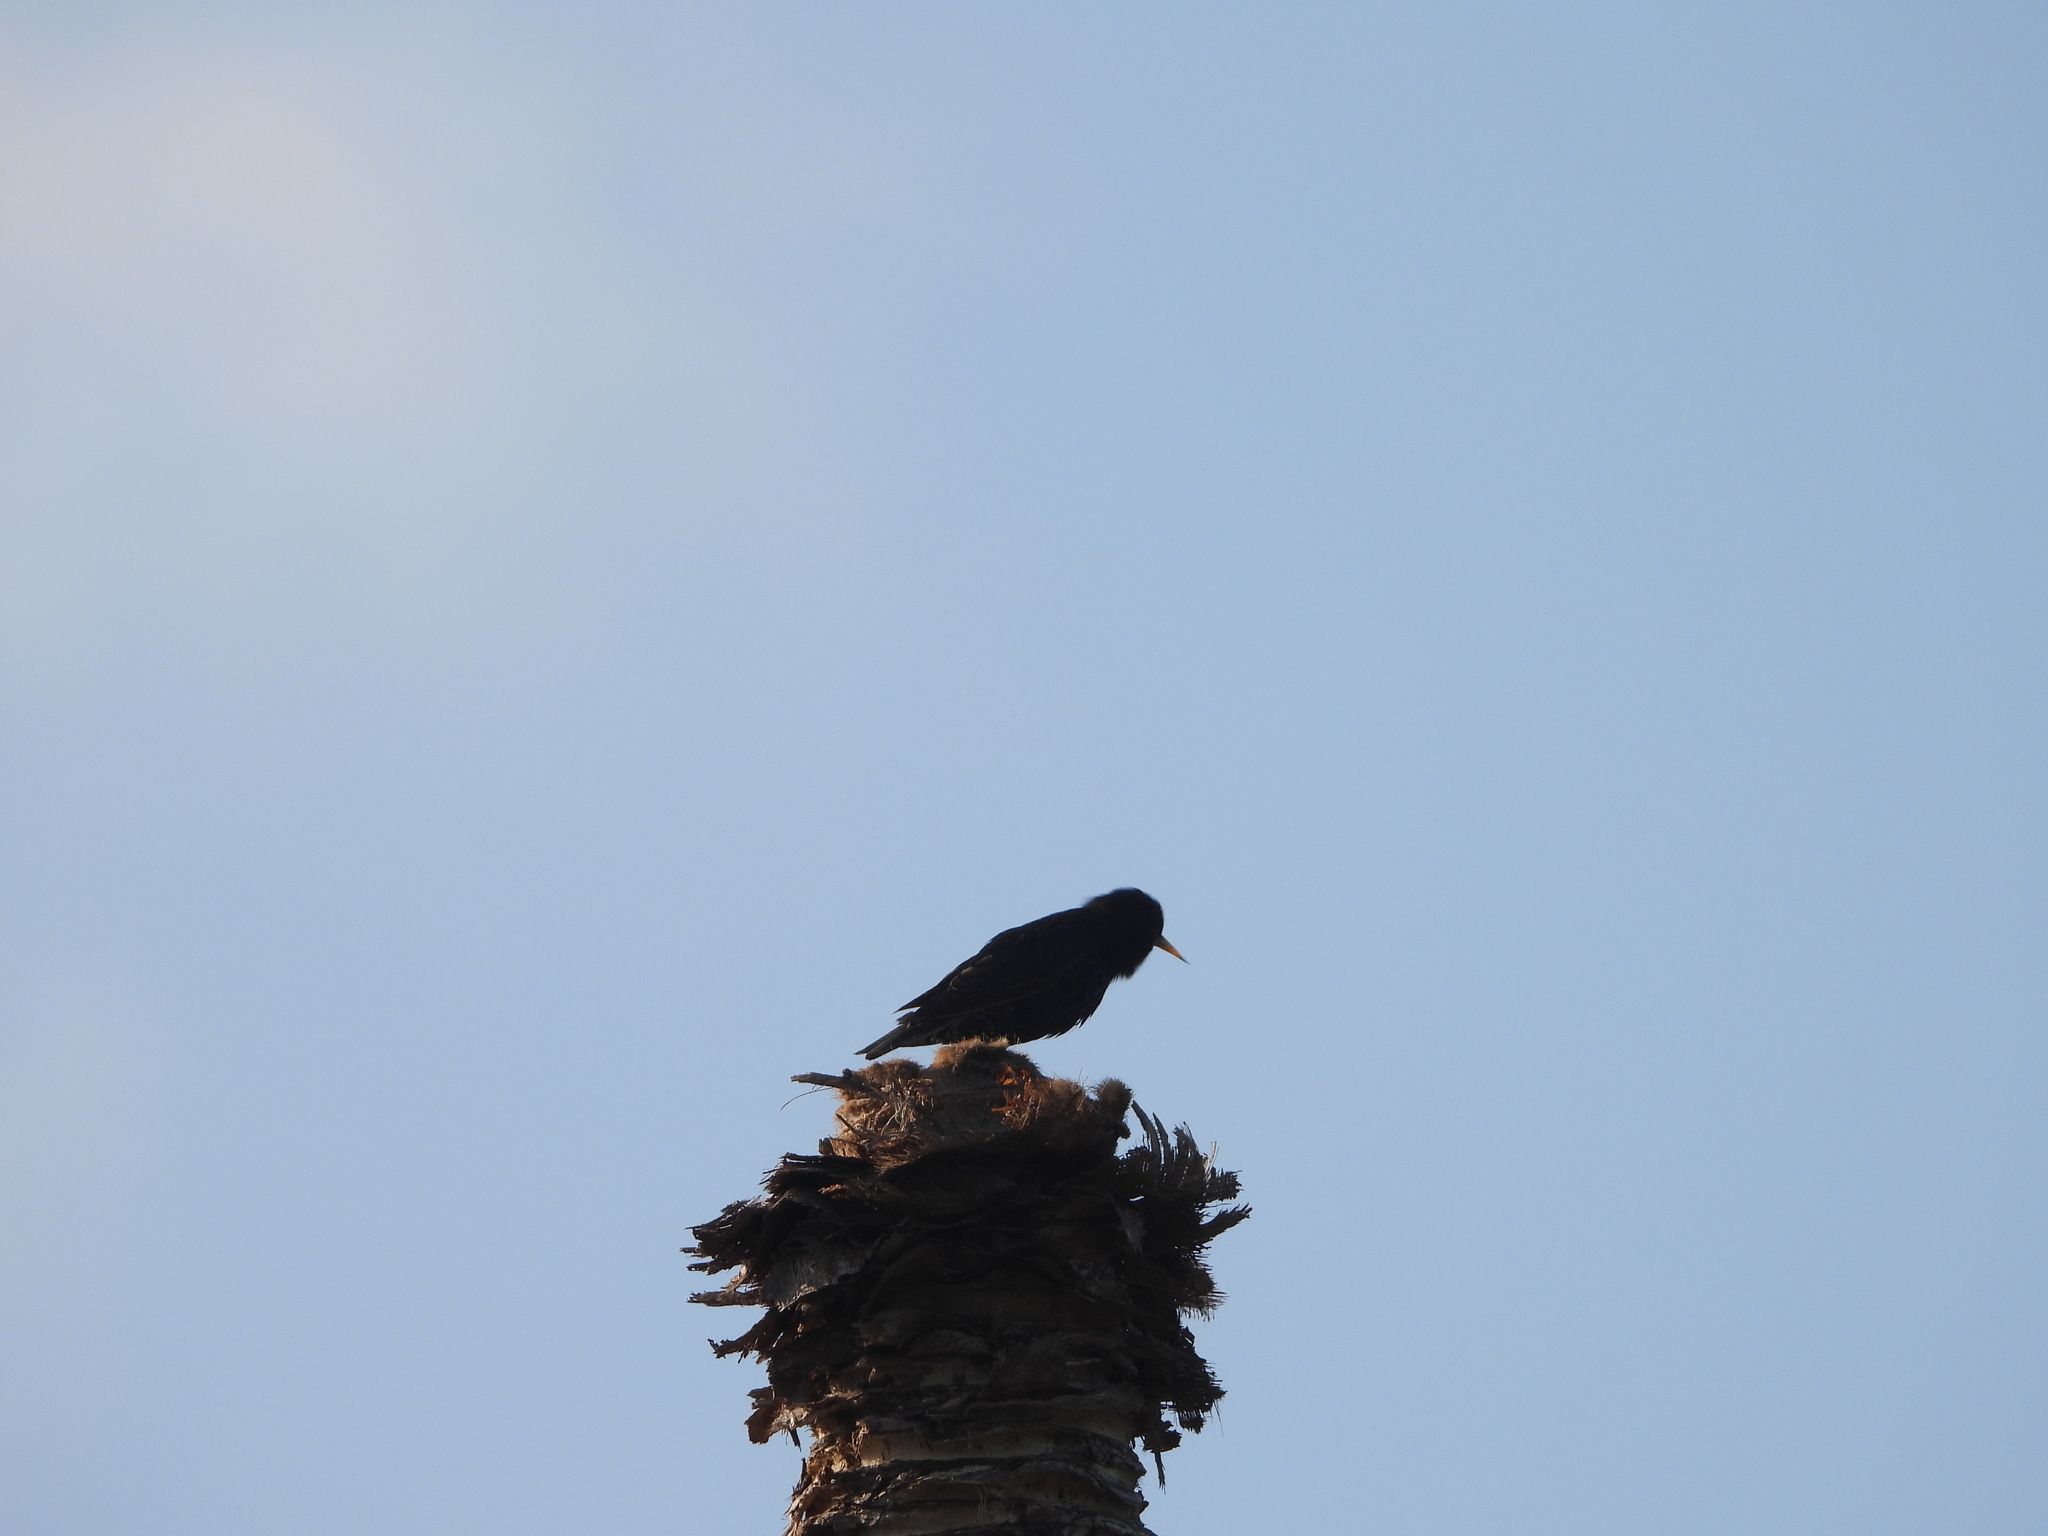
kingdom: Animalia
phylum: Chordata
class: Aves
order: Passeriformes
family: Sturnidae
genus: Sturnus
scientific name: Sturnus vulgaris
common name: Common starling
